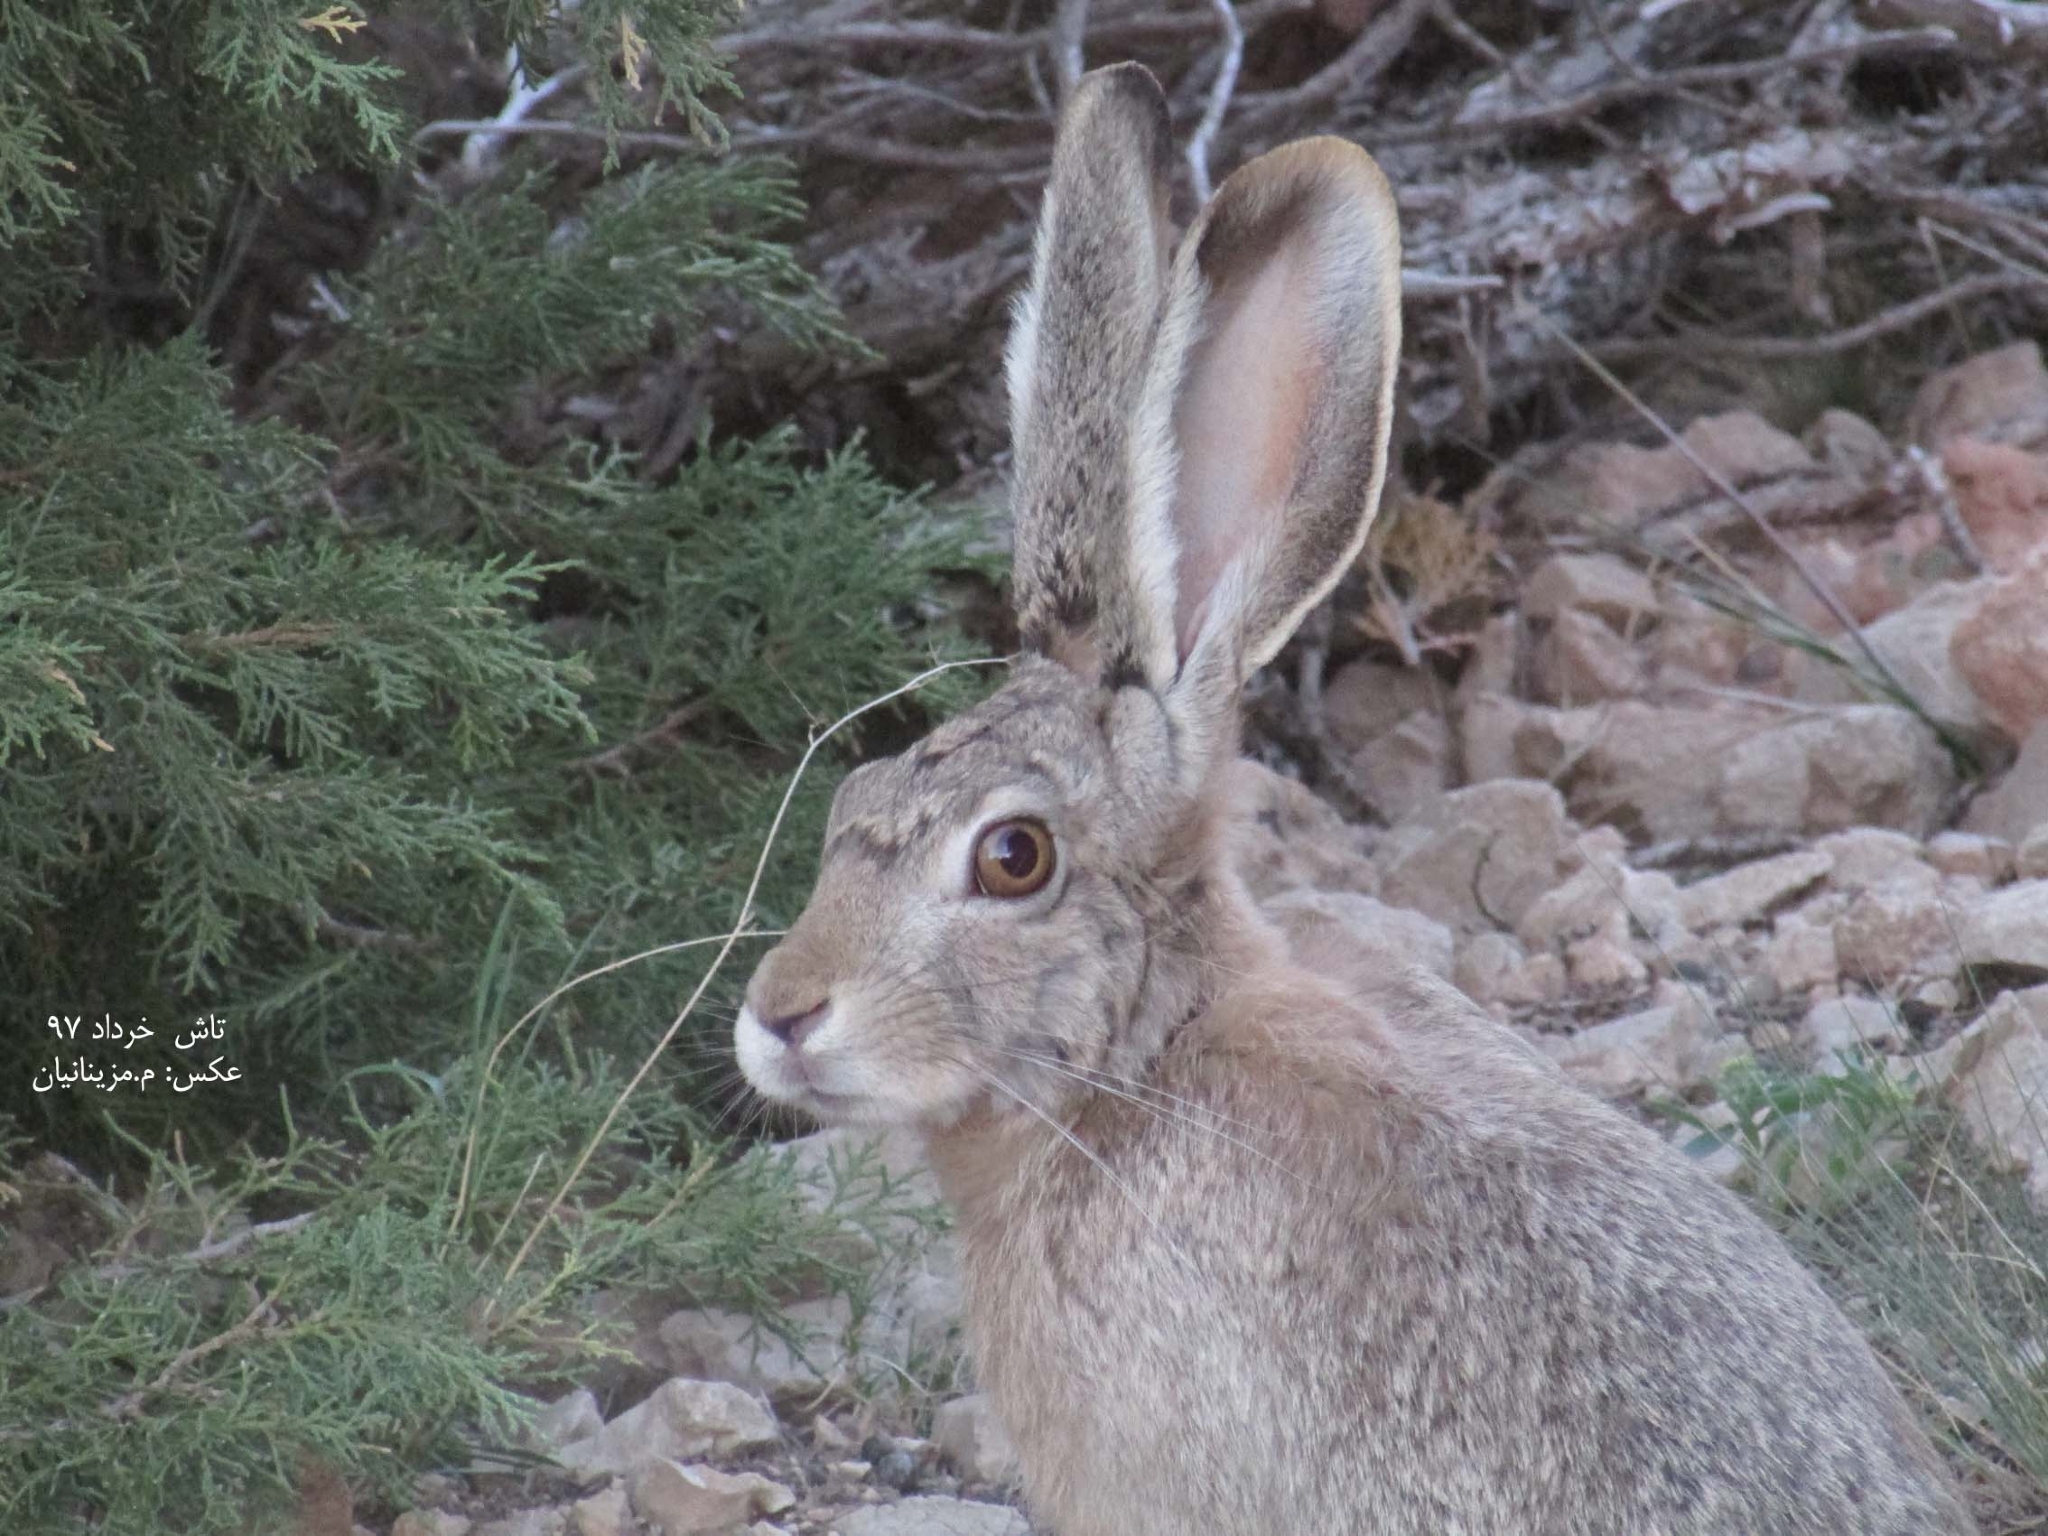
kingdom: Animalia
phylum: Chordata
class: Mammalia
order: Lagomorpha
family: Leporidae
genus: Lepus
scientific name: Lepus capensis
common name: Cape hare
